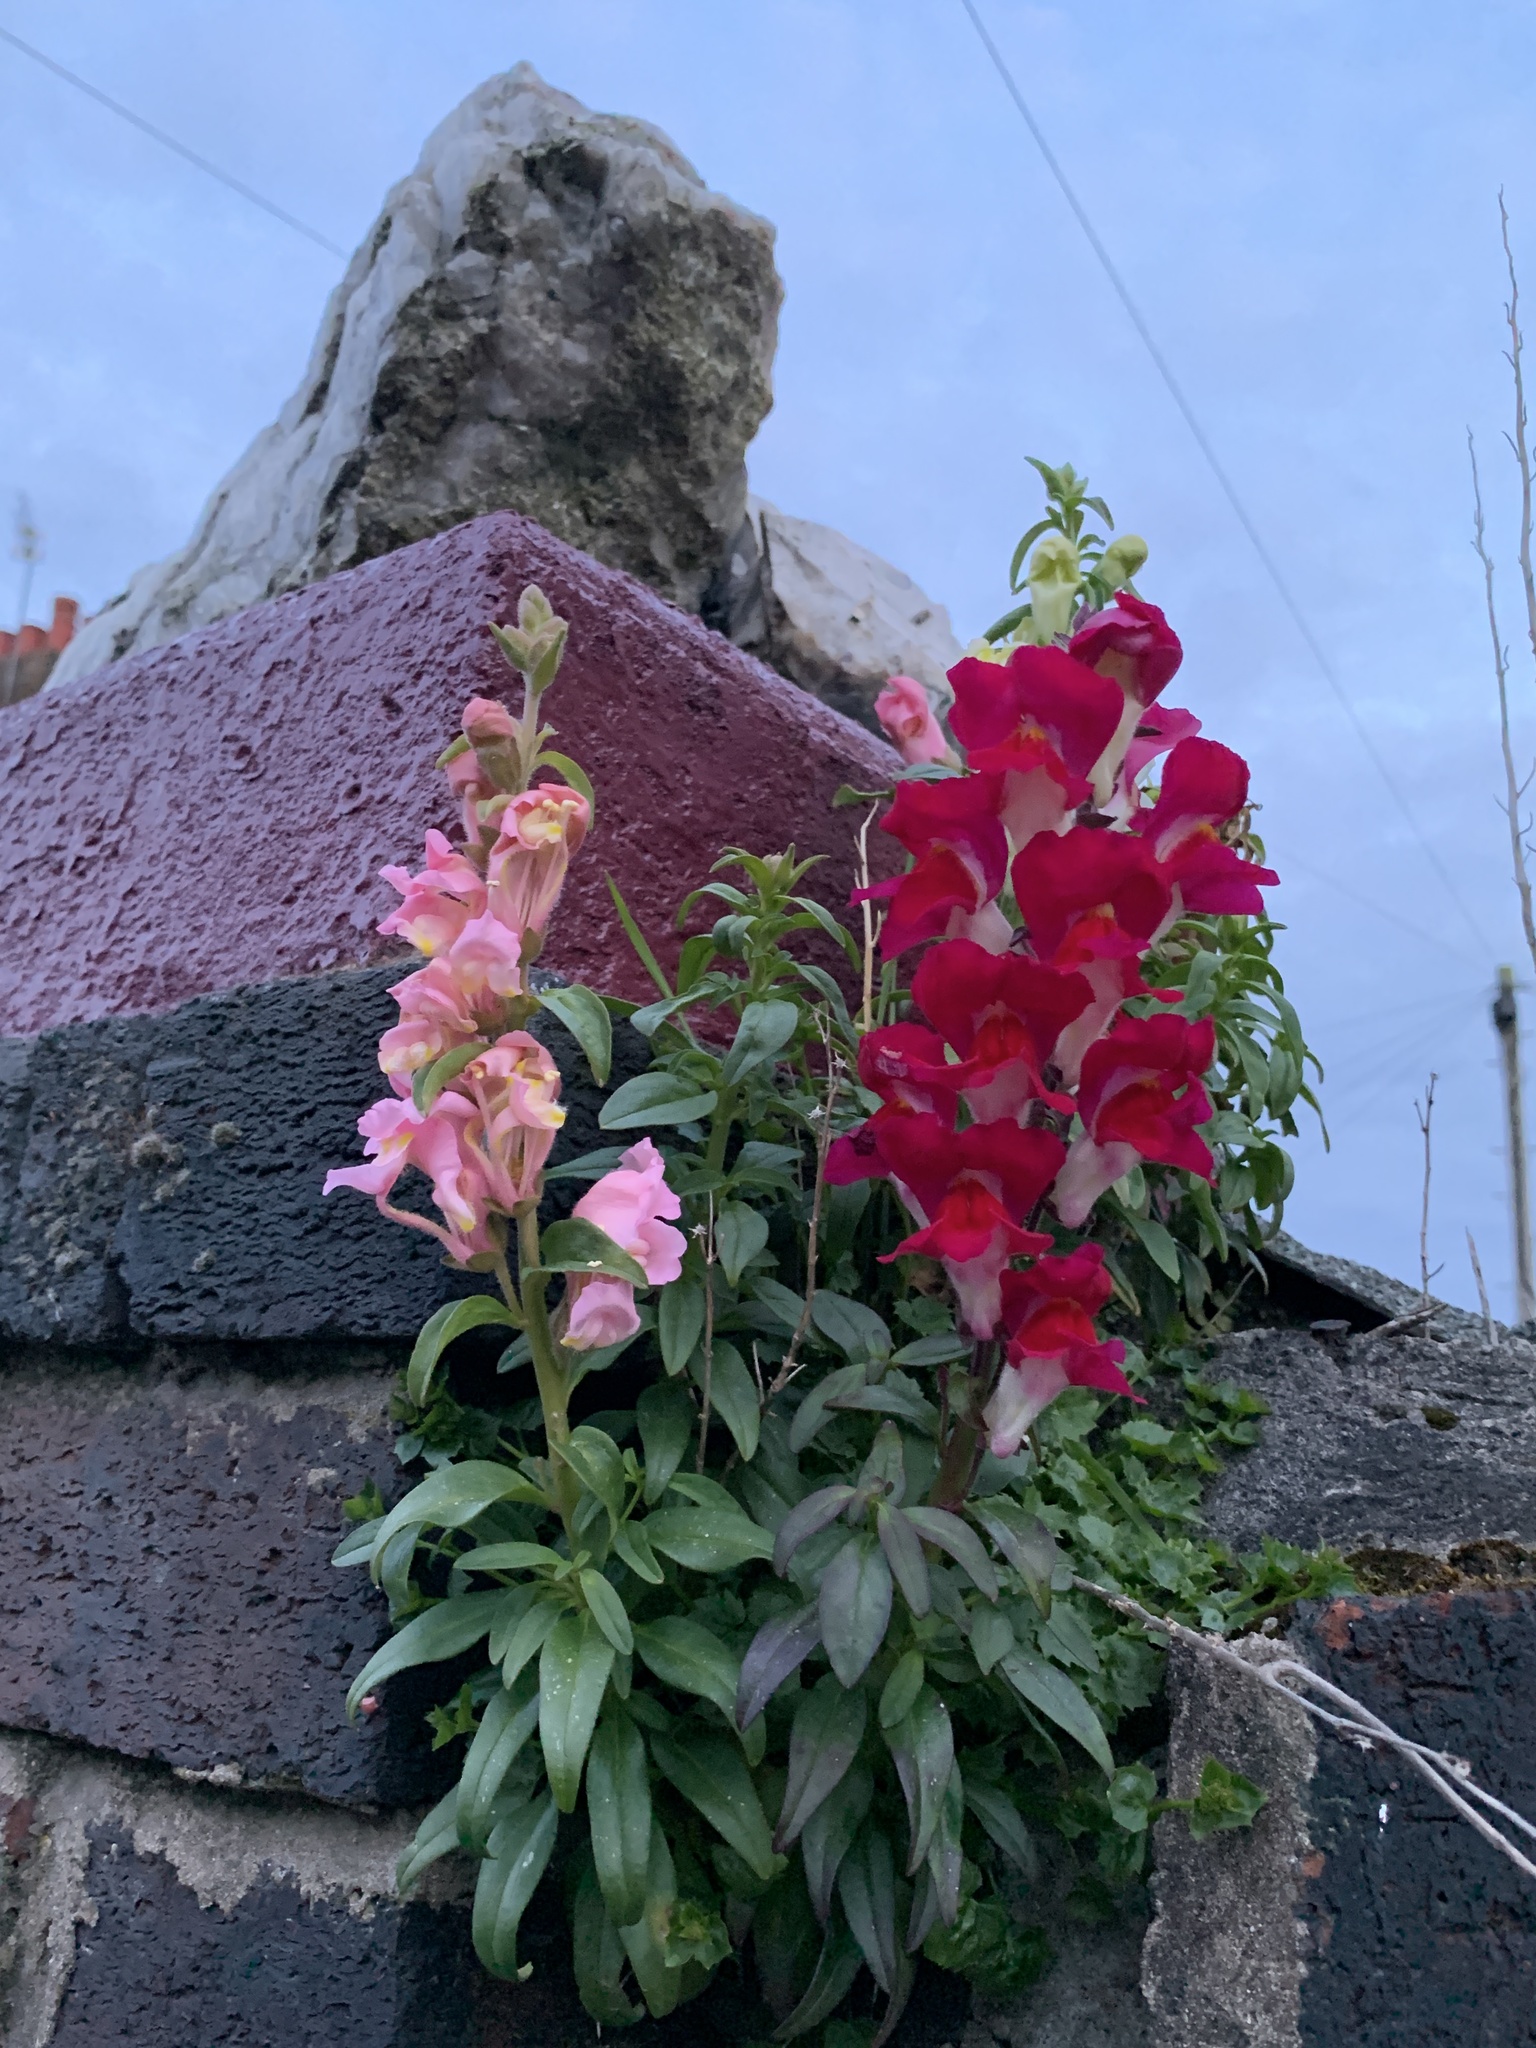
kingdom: Plantae
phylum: Tracheophyta
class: Magnoliopsida
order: Lamiales
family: Plantaginaceae
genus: Antirrhinum
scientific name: Antirrhinum majus
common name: Snapdragon
